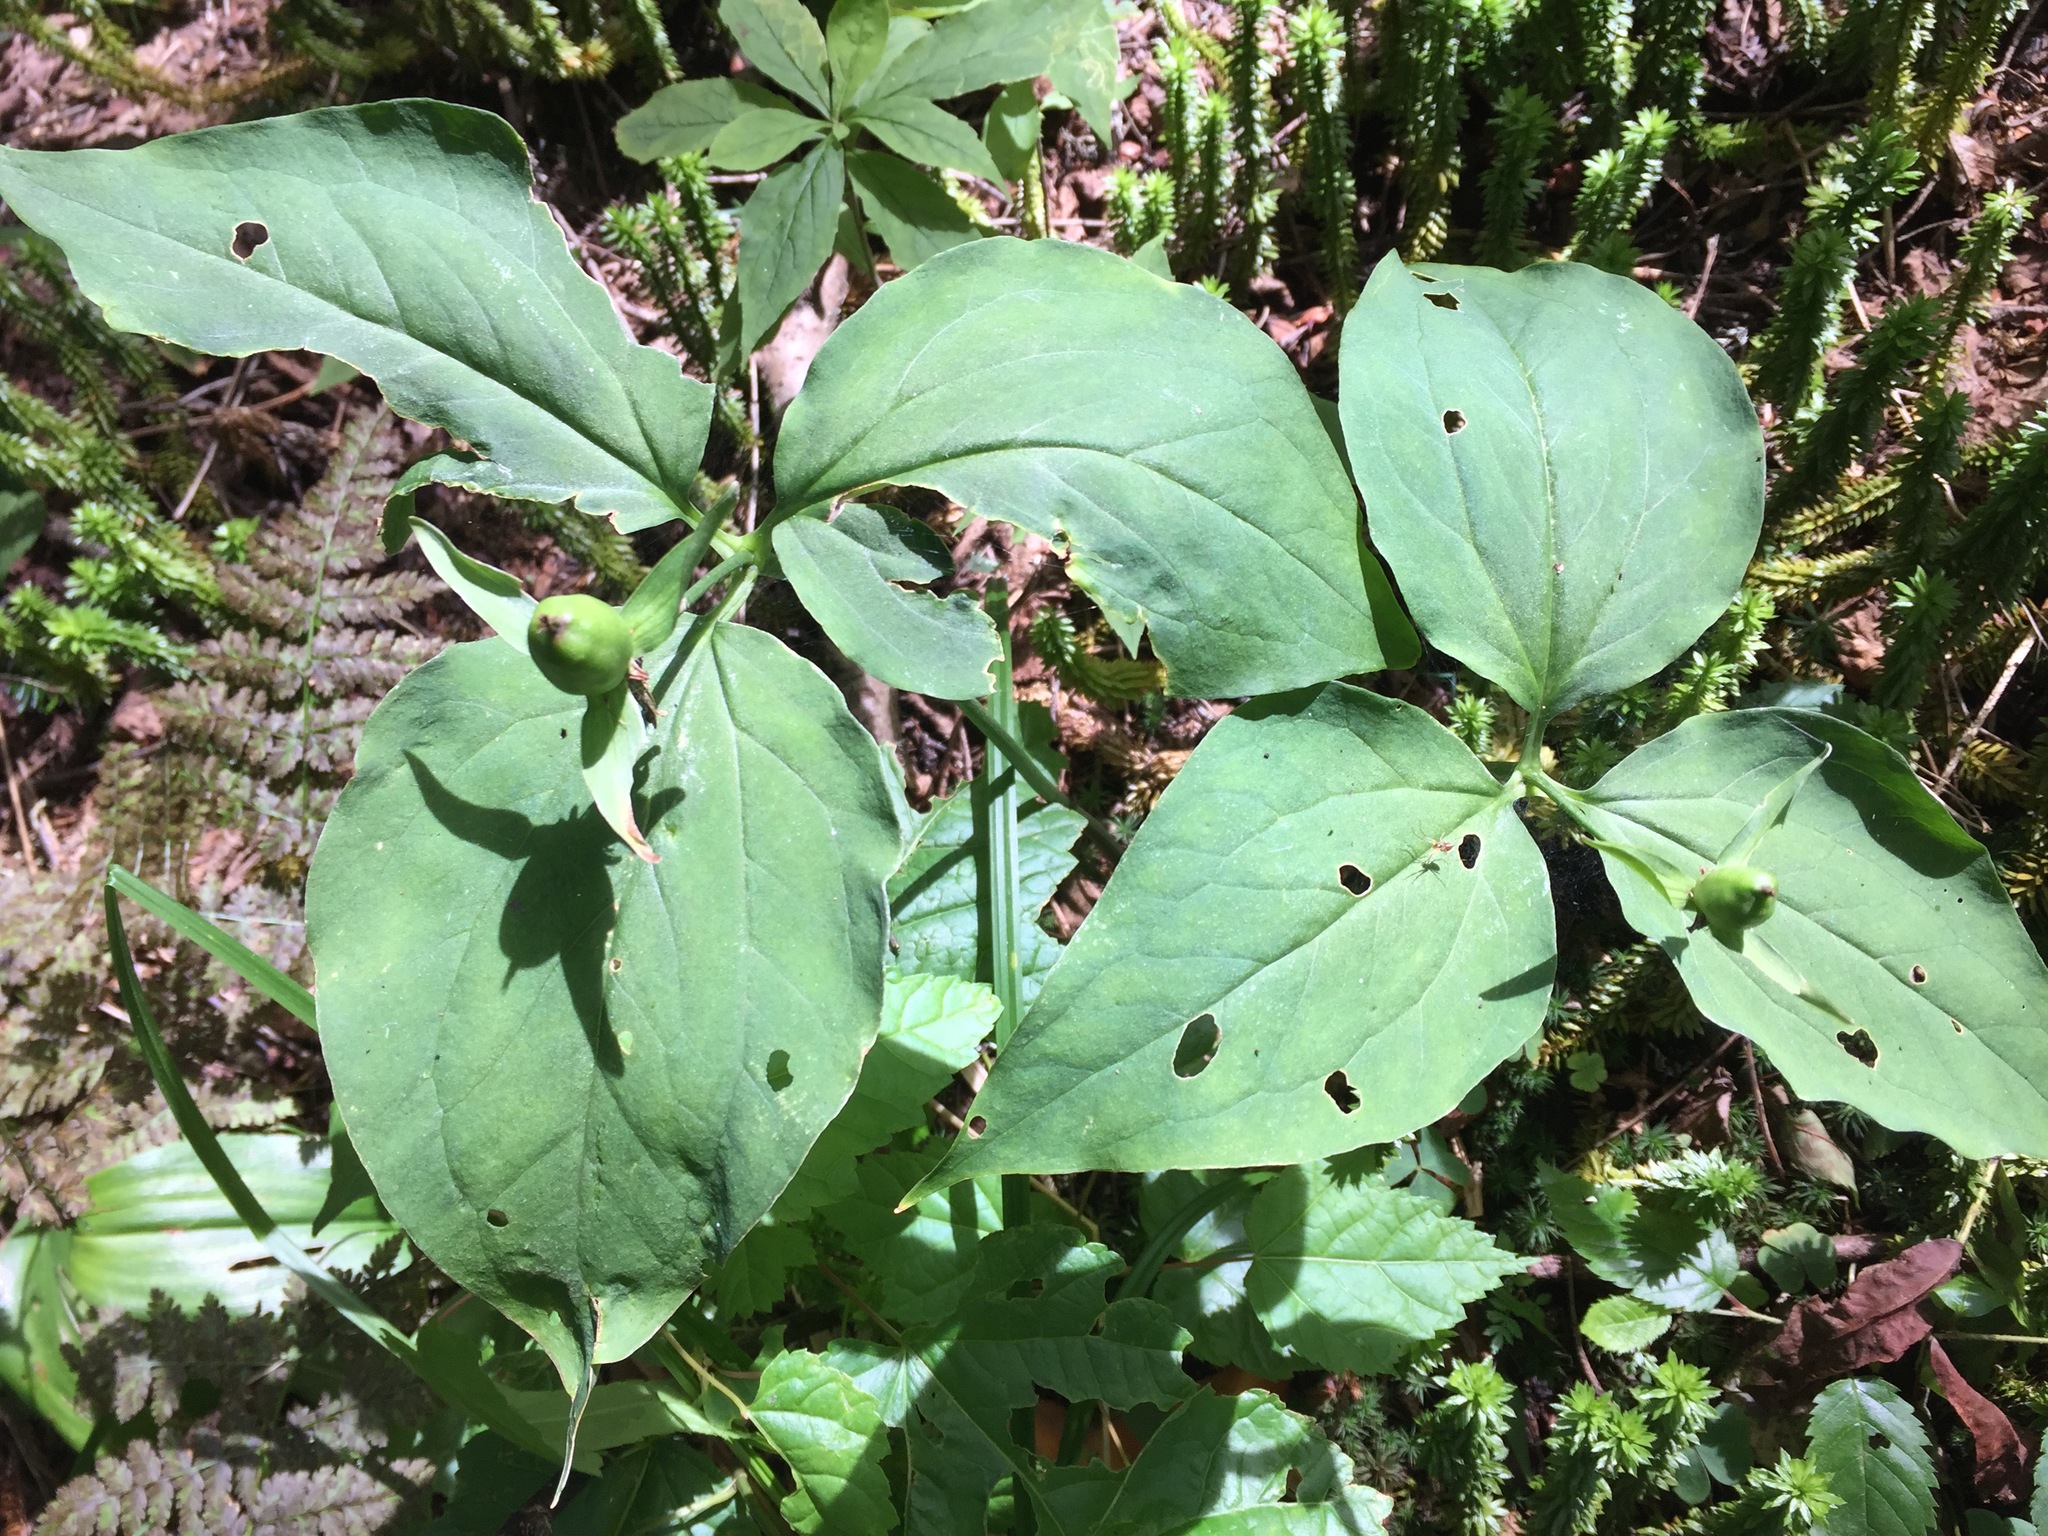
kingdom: Plantae
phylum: Tracheophyta
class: Liliopsida
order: Liliales
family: Melanthiaceae
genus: Trillium
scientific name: Trillium undulatum
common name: Paint trillium
